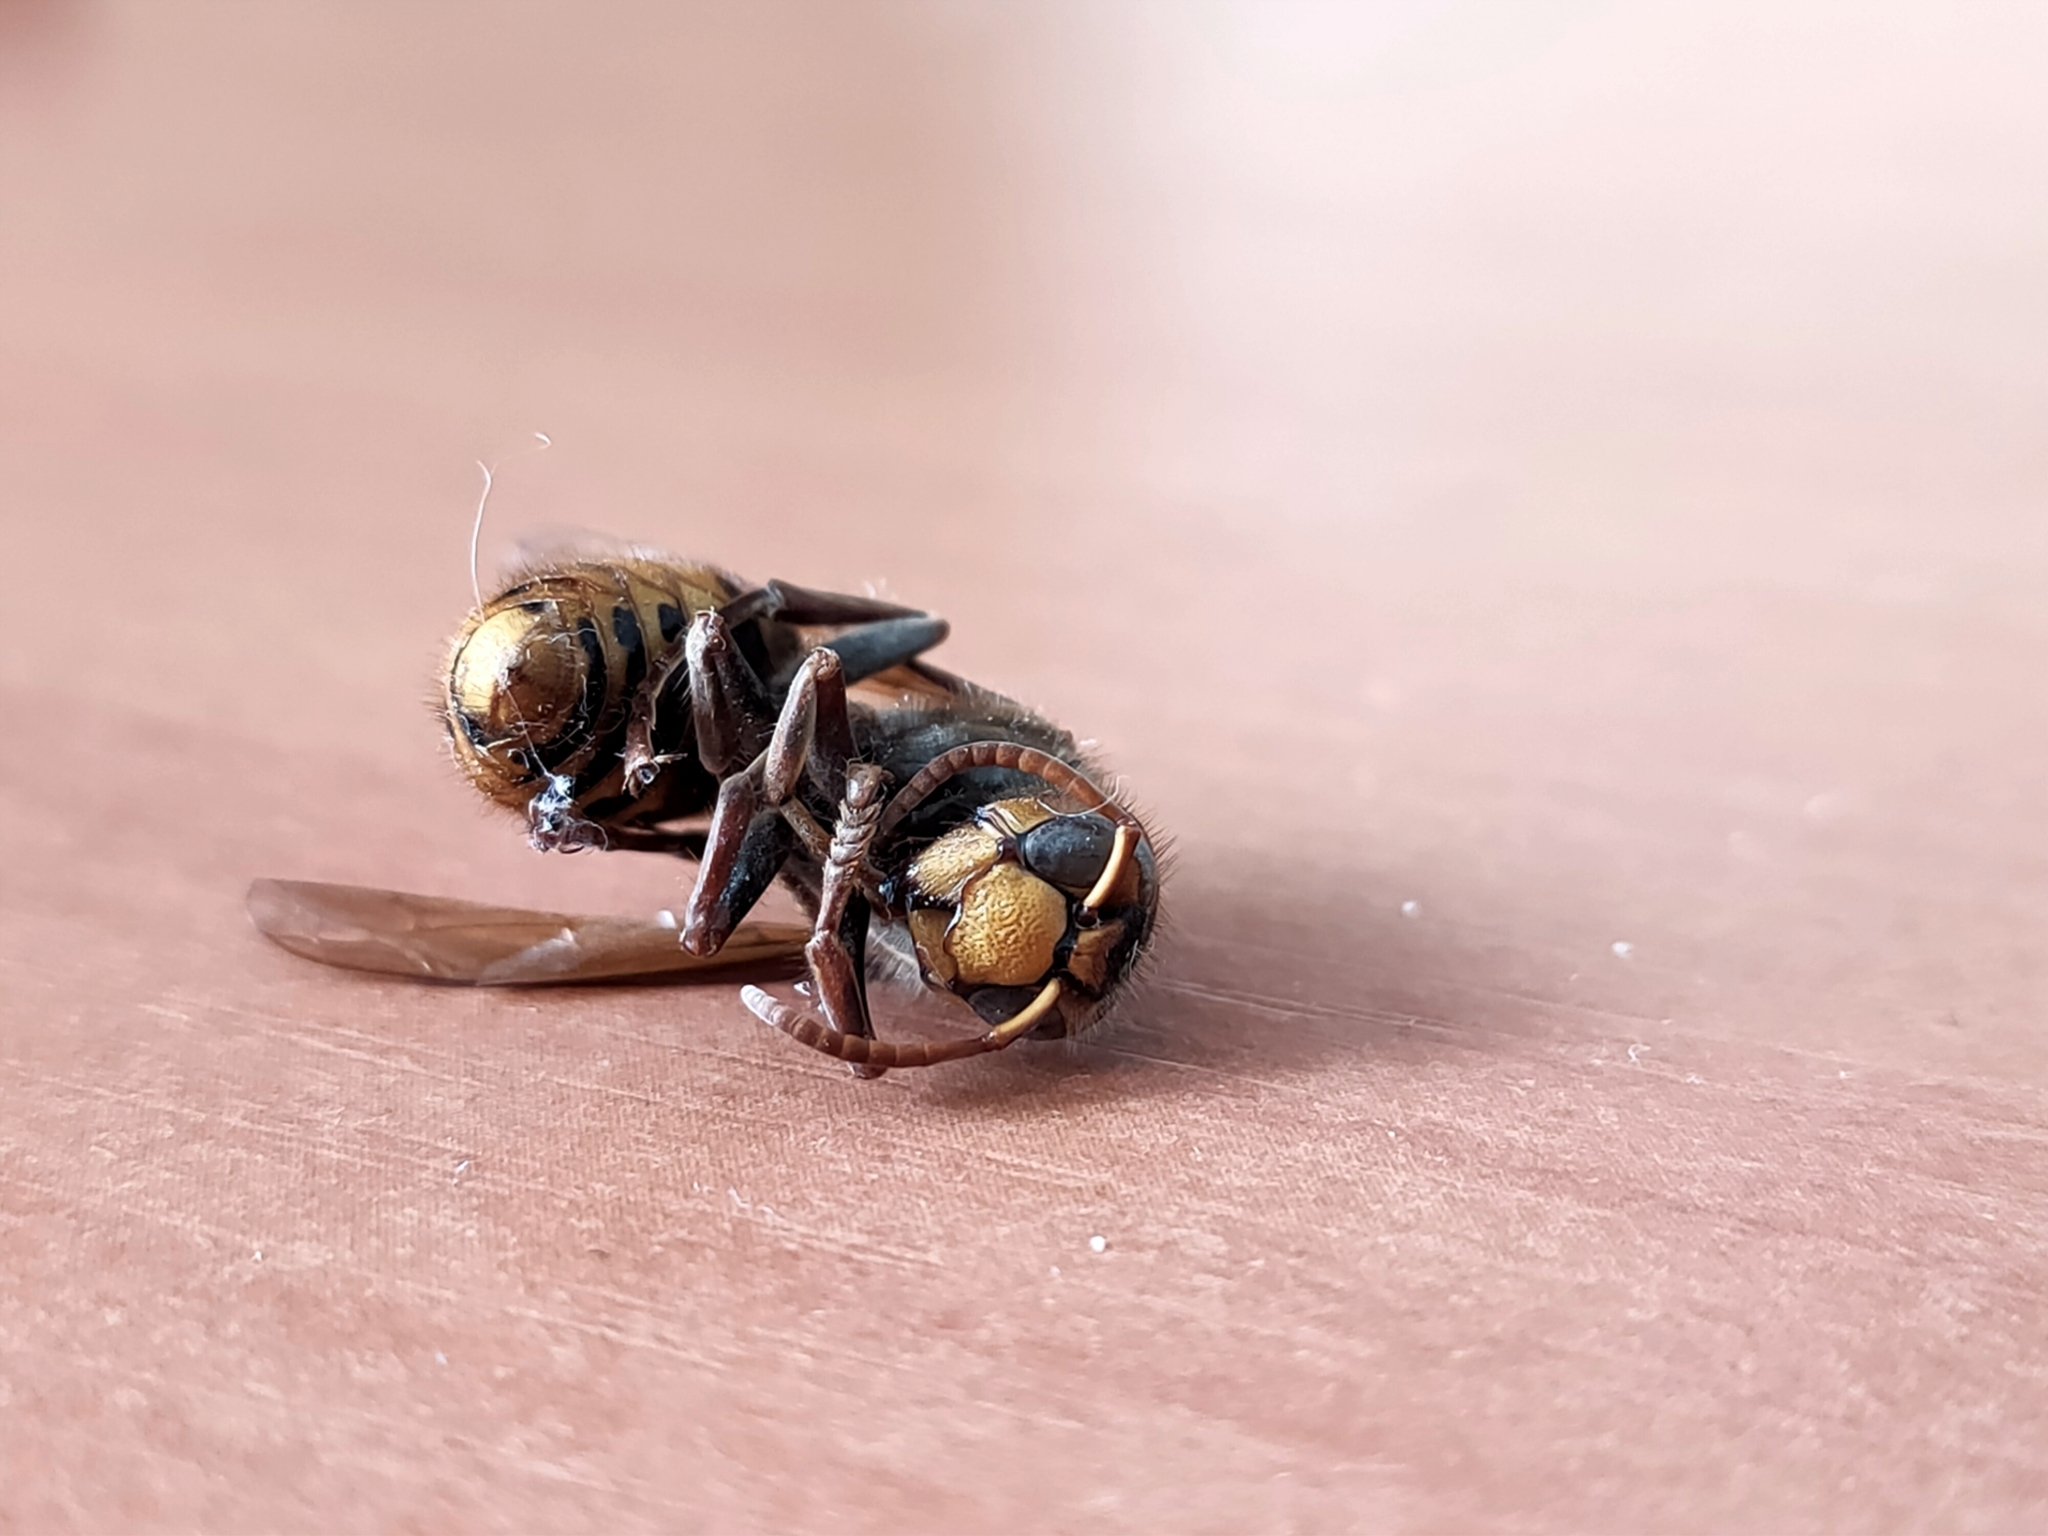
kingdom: Animalia
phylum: Arthropoda
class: Insecta
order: Hymenoptera
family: Vespidae
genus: Vespa
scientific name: Vespa crabro
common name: Hornet
